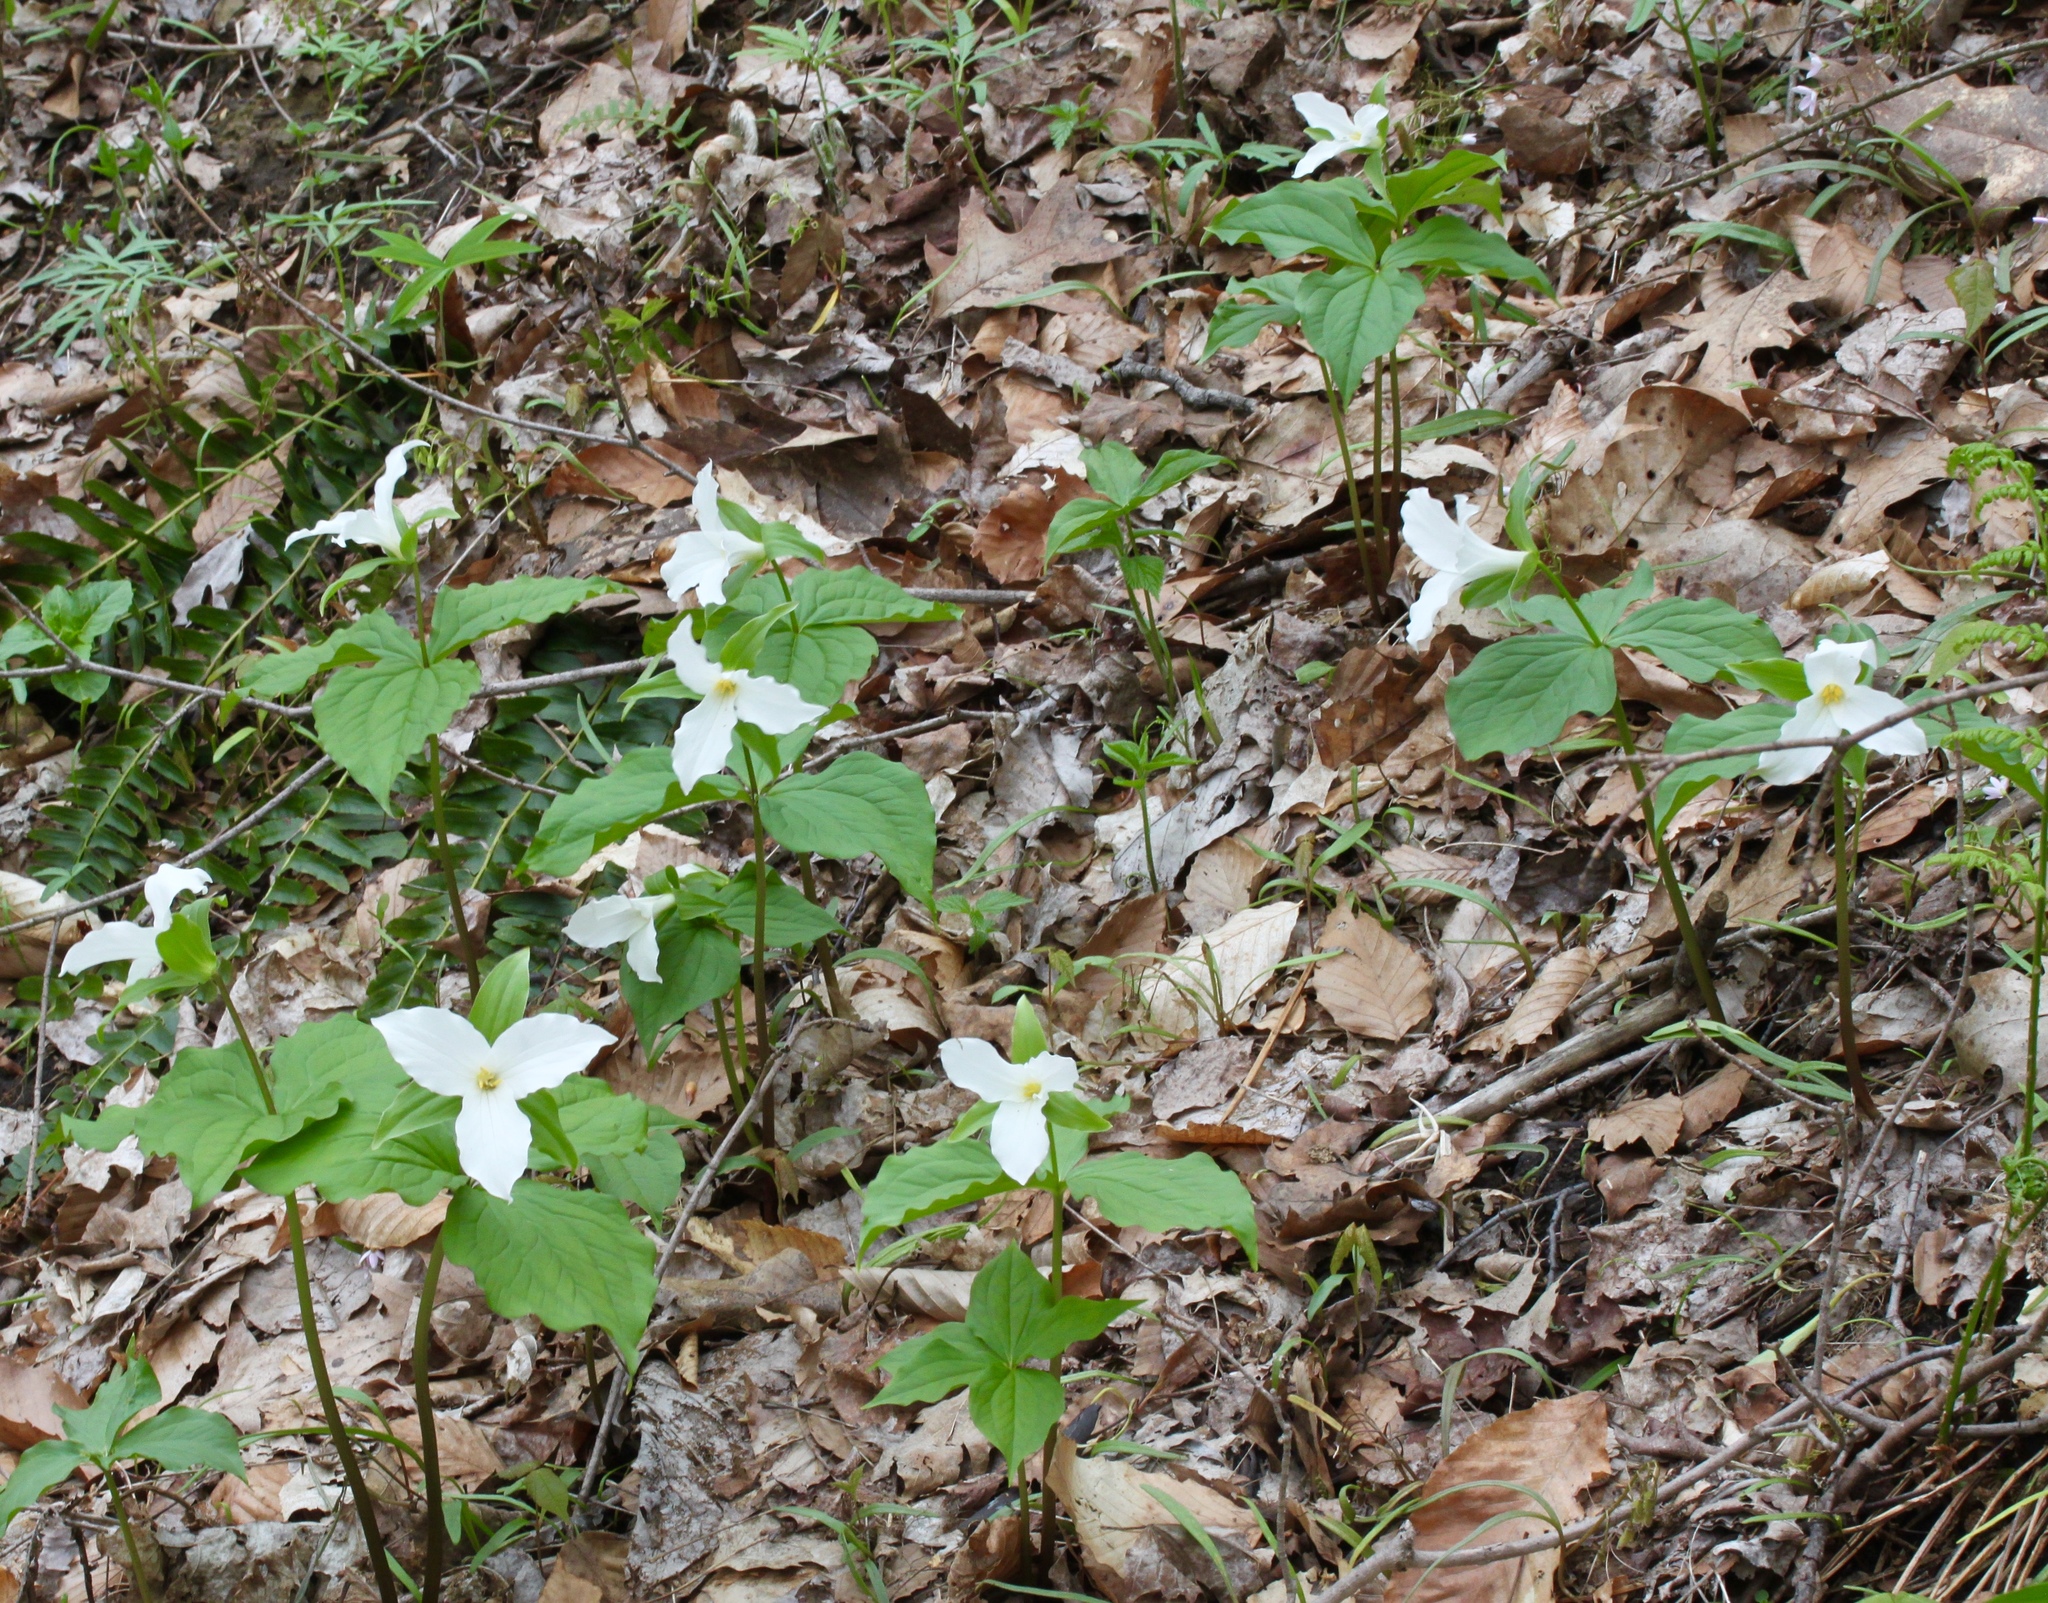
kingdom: Plantae
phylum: Tracheophyta
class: Liliopsida
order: Liliales
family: Melanthiaceae
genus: Trillium
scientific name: Trillium grandiflorum
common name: Great white trillium
